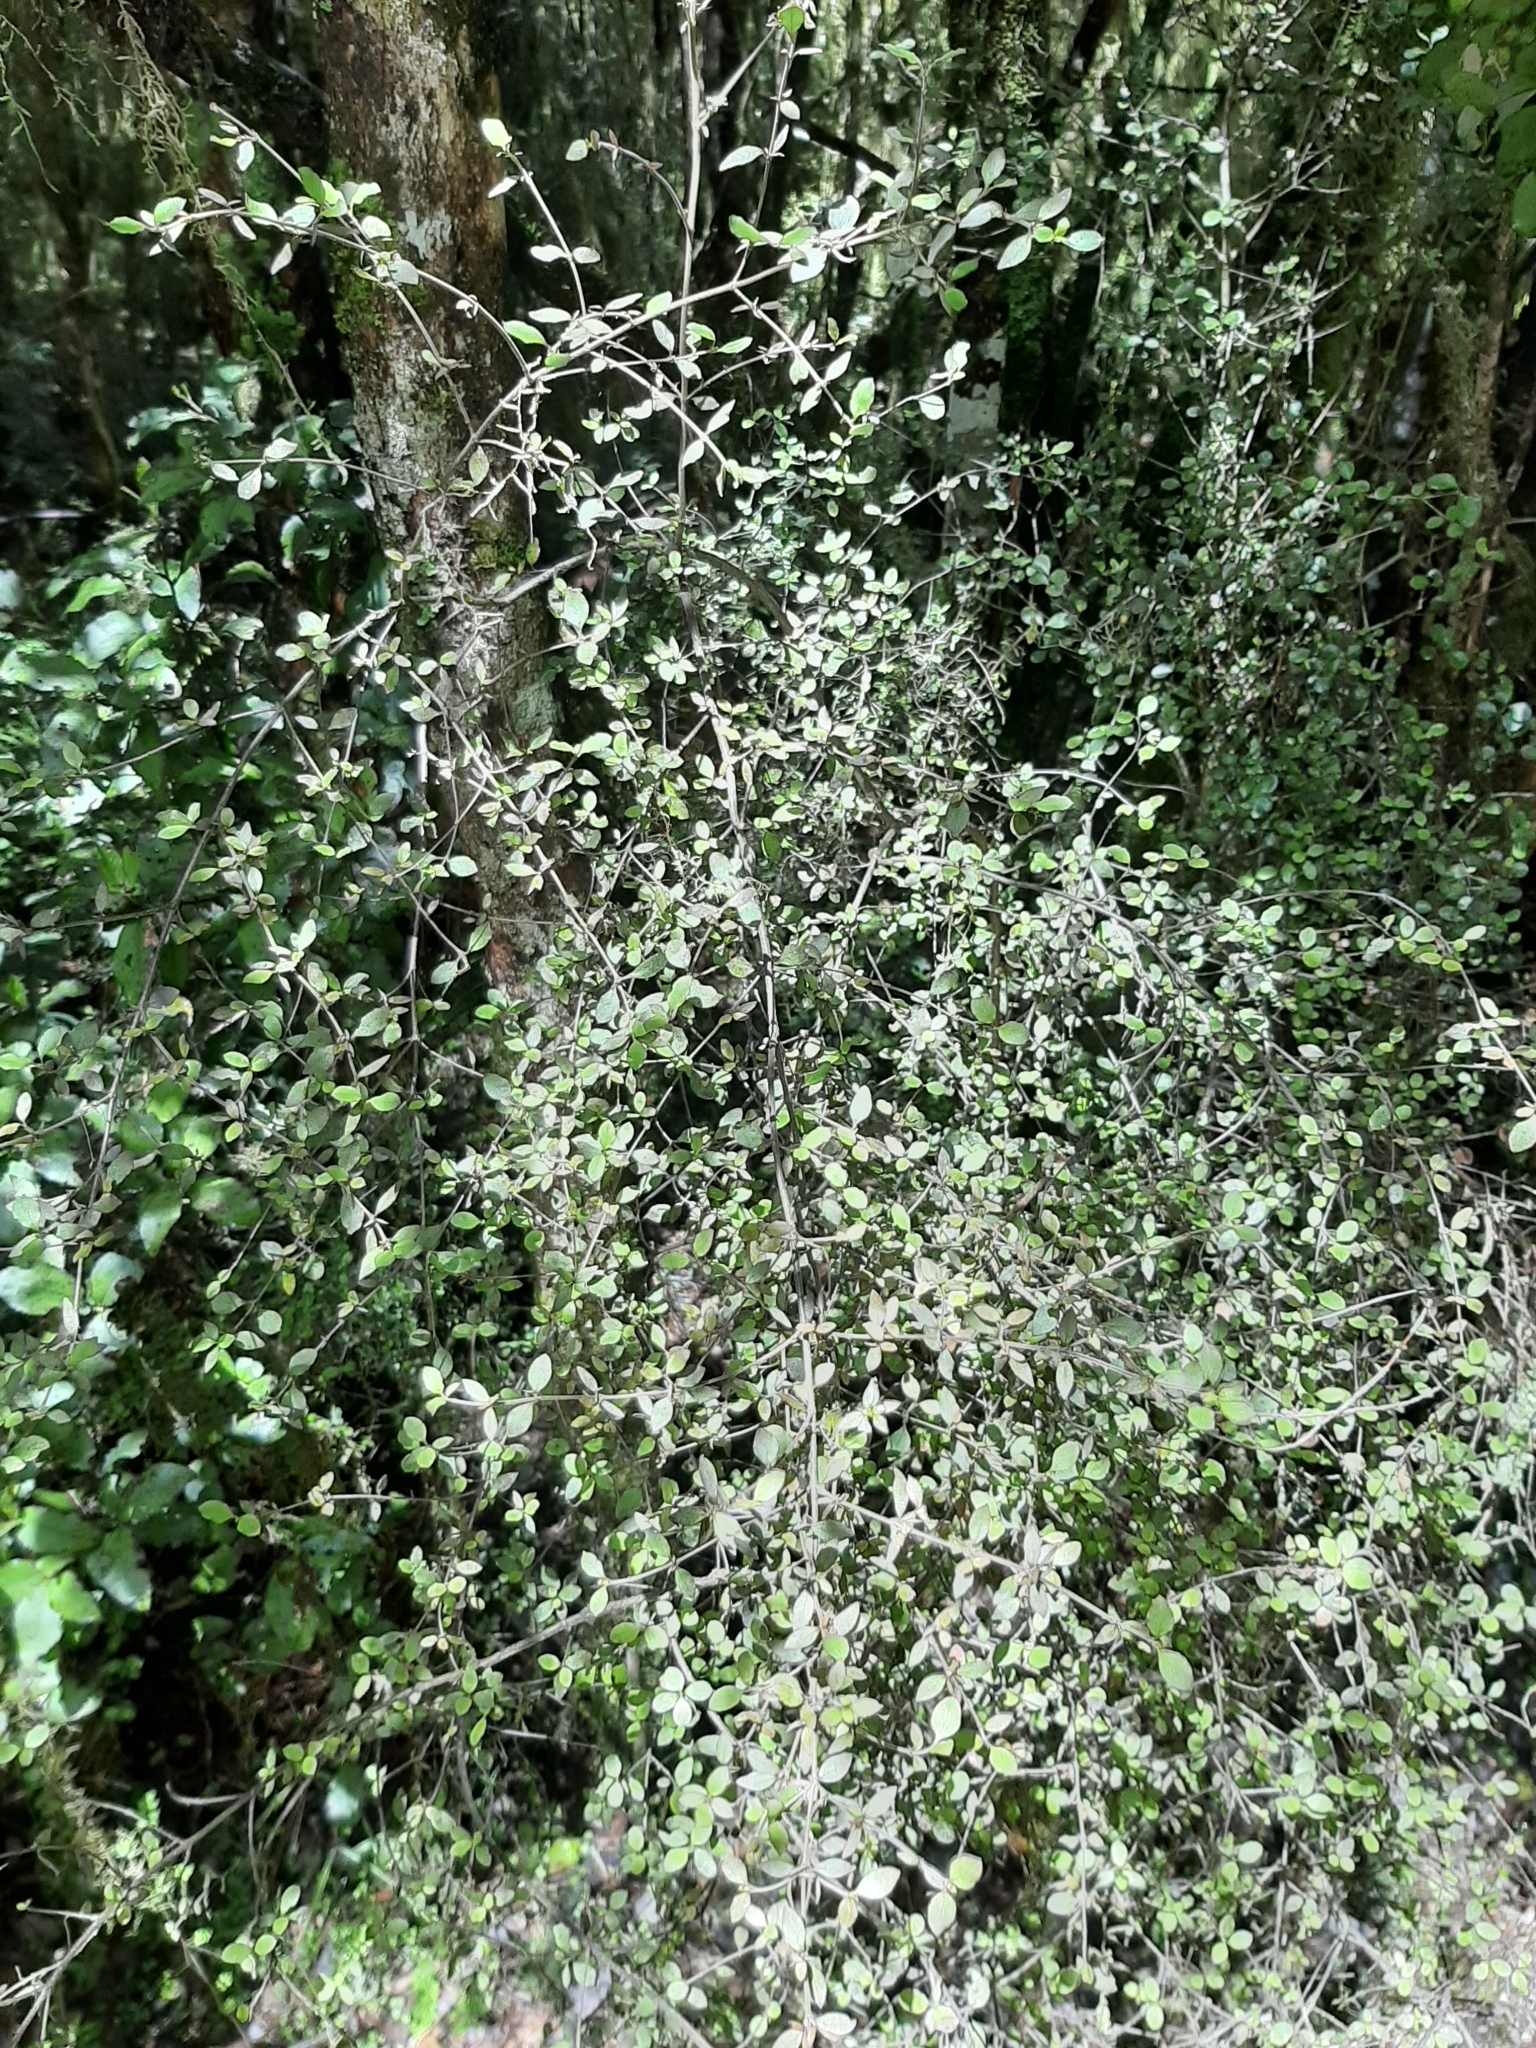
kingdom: Plantae
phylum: Tracheophyta
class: Magnoliopsida
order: Gentianales
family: Rubiaceae
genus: Coprosma
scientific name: Coprosma rhamnoides
